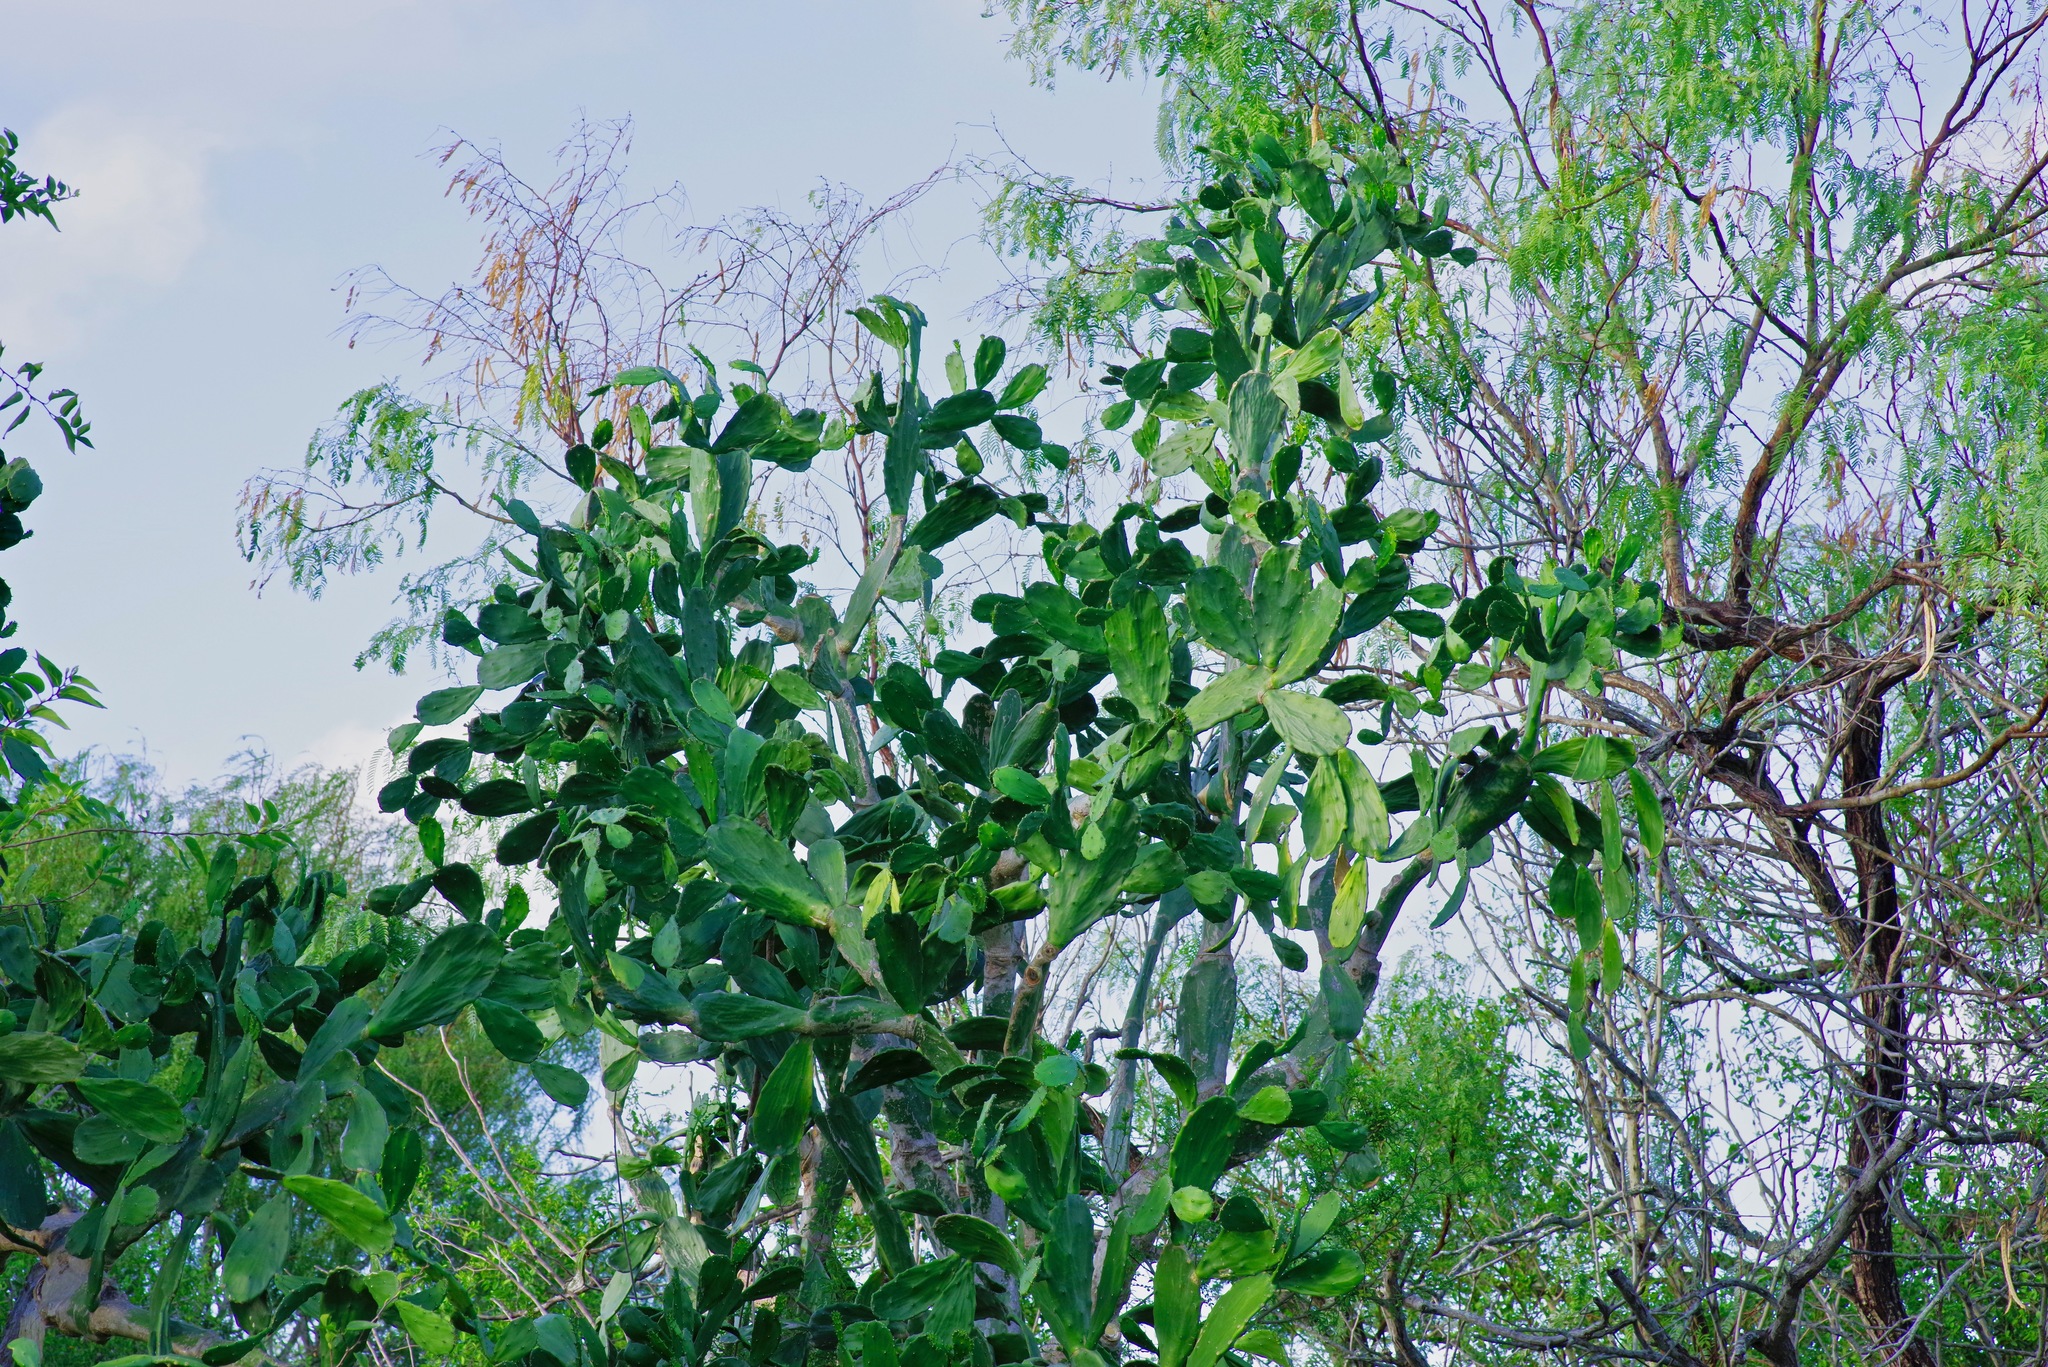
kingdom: Plantae
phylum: Tracheophyta
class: Magnoliopsida
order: Caryophyllales
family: Cactaceae
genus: Opuntia
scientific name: Opuntia cochenillifera
